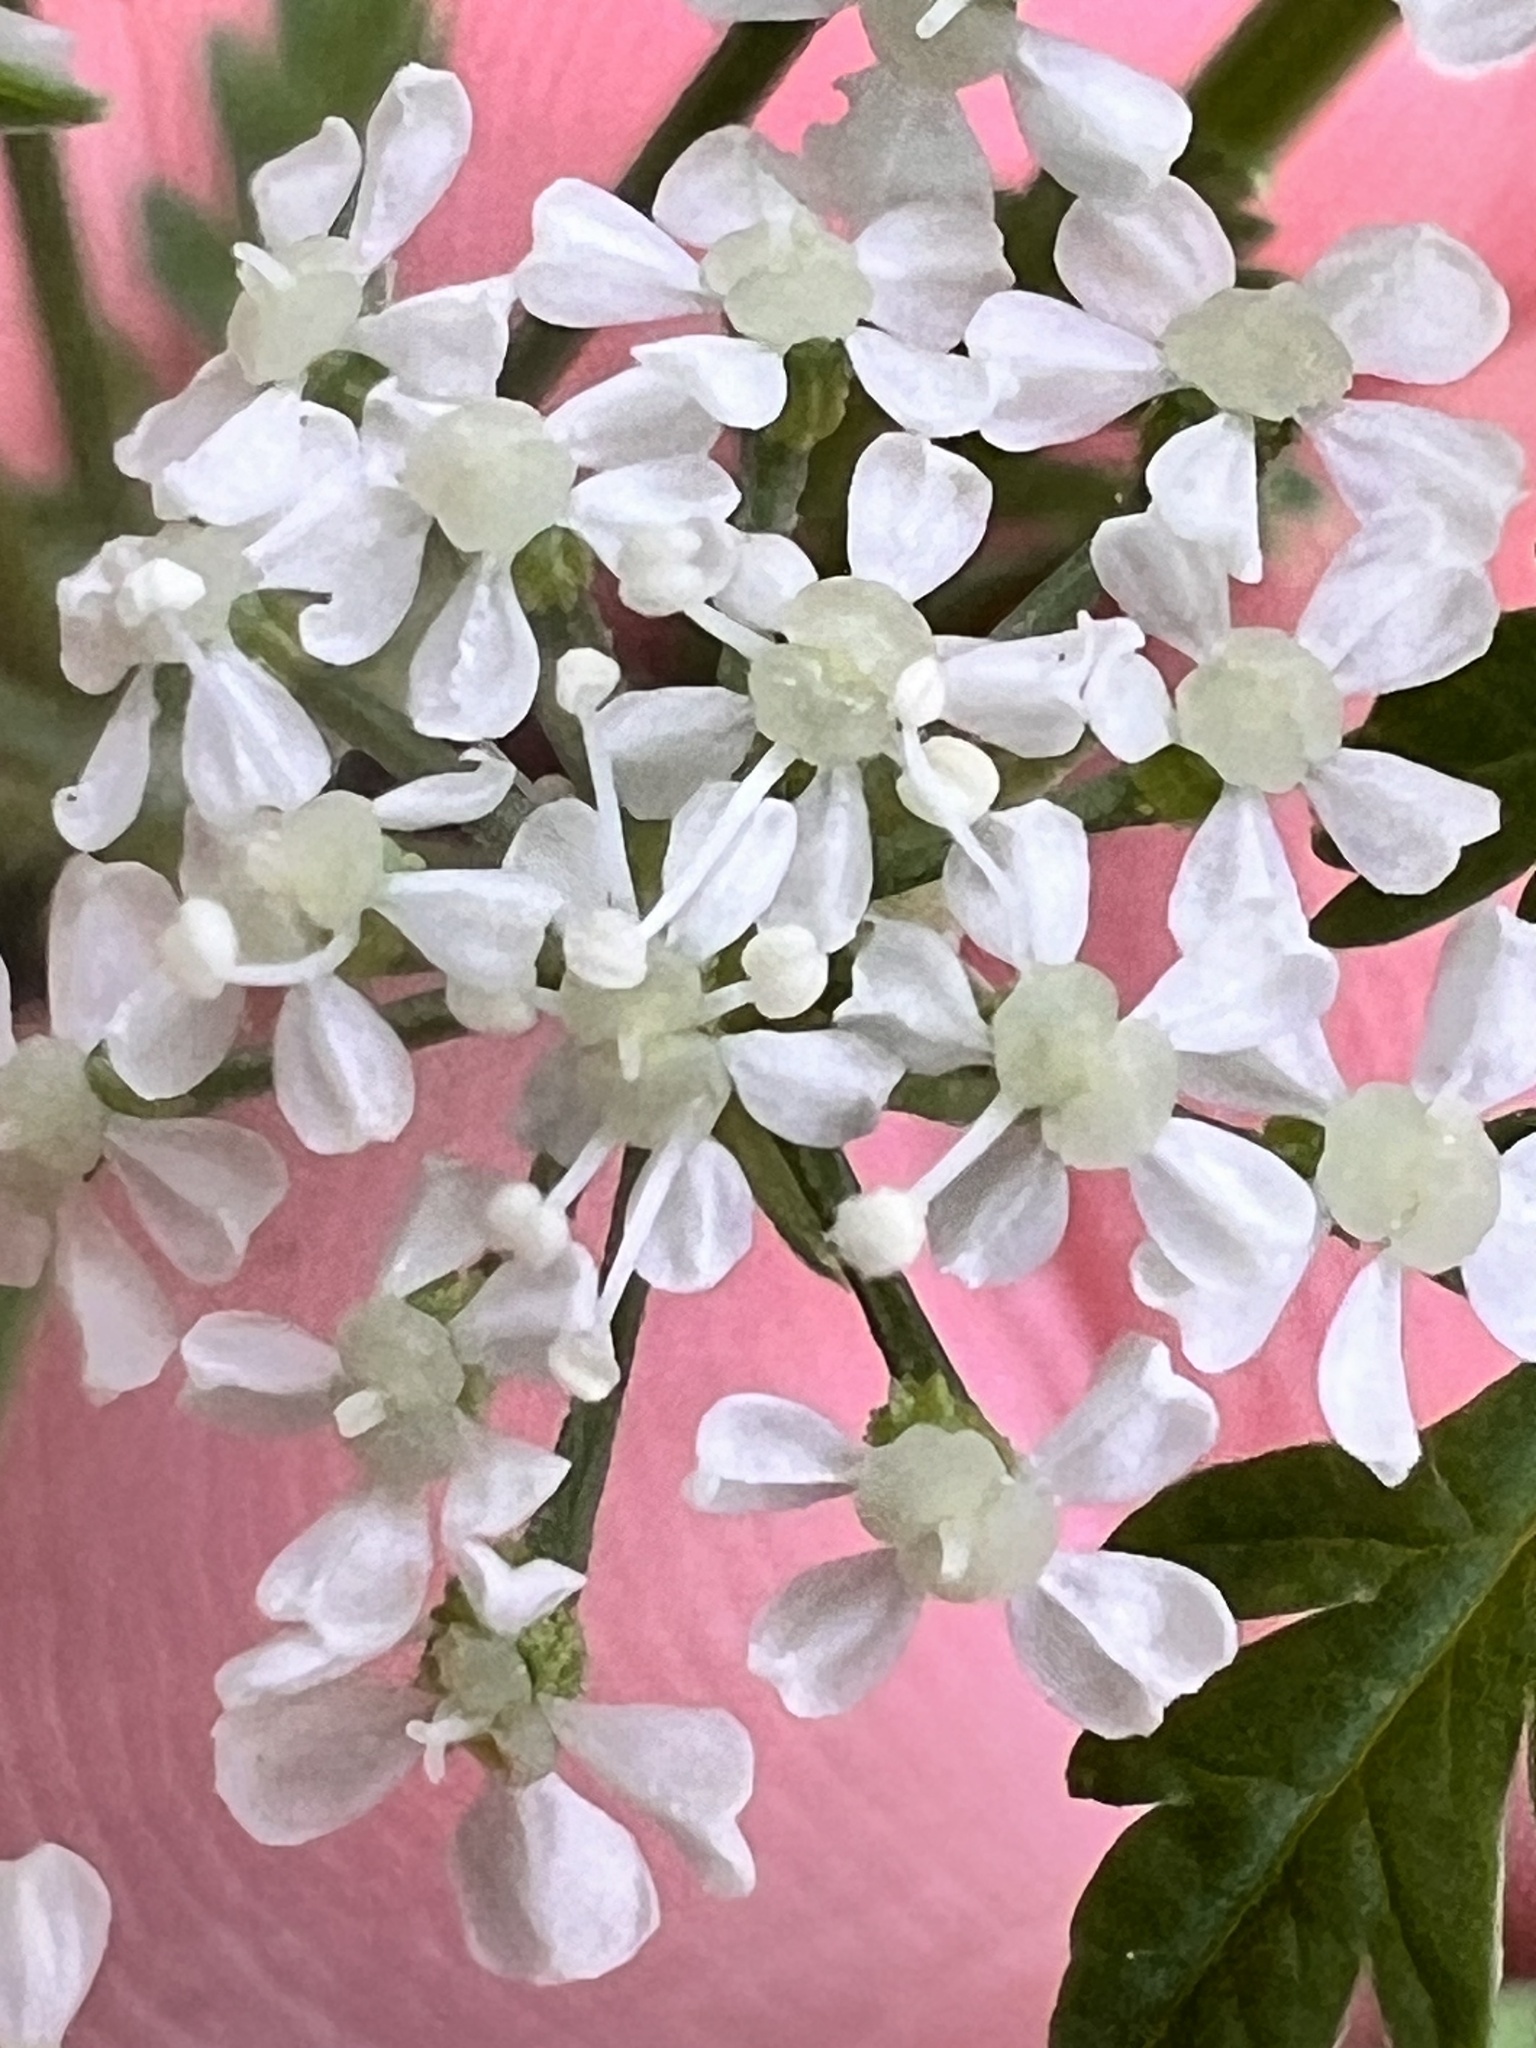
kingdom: Plantae
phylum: Tracheophyta
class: Magnoliopsida
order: Apiales
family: Apiaceae
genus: Conium
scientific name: Conium maculatum
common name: Hemlock
